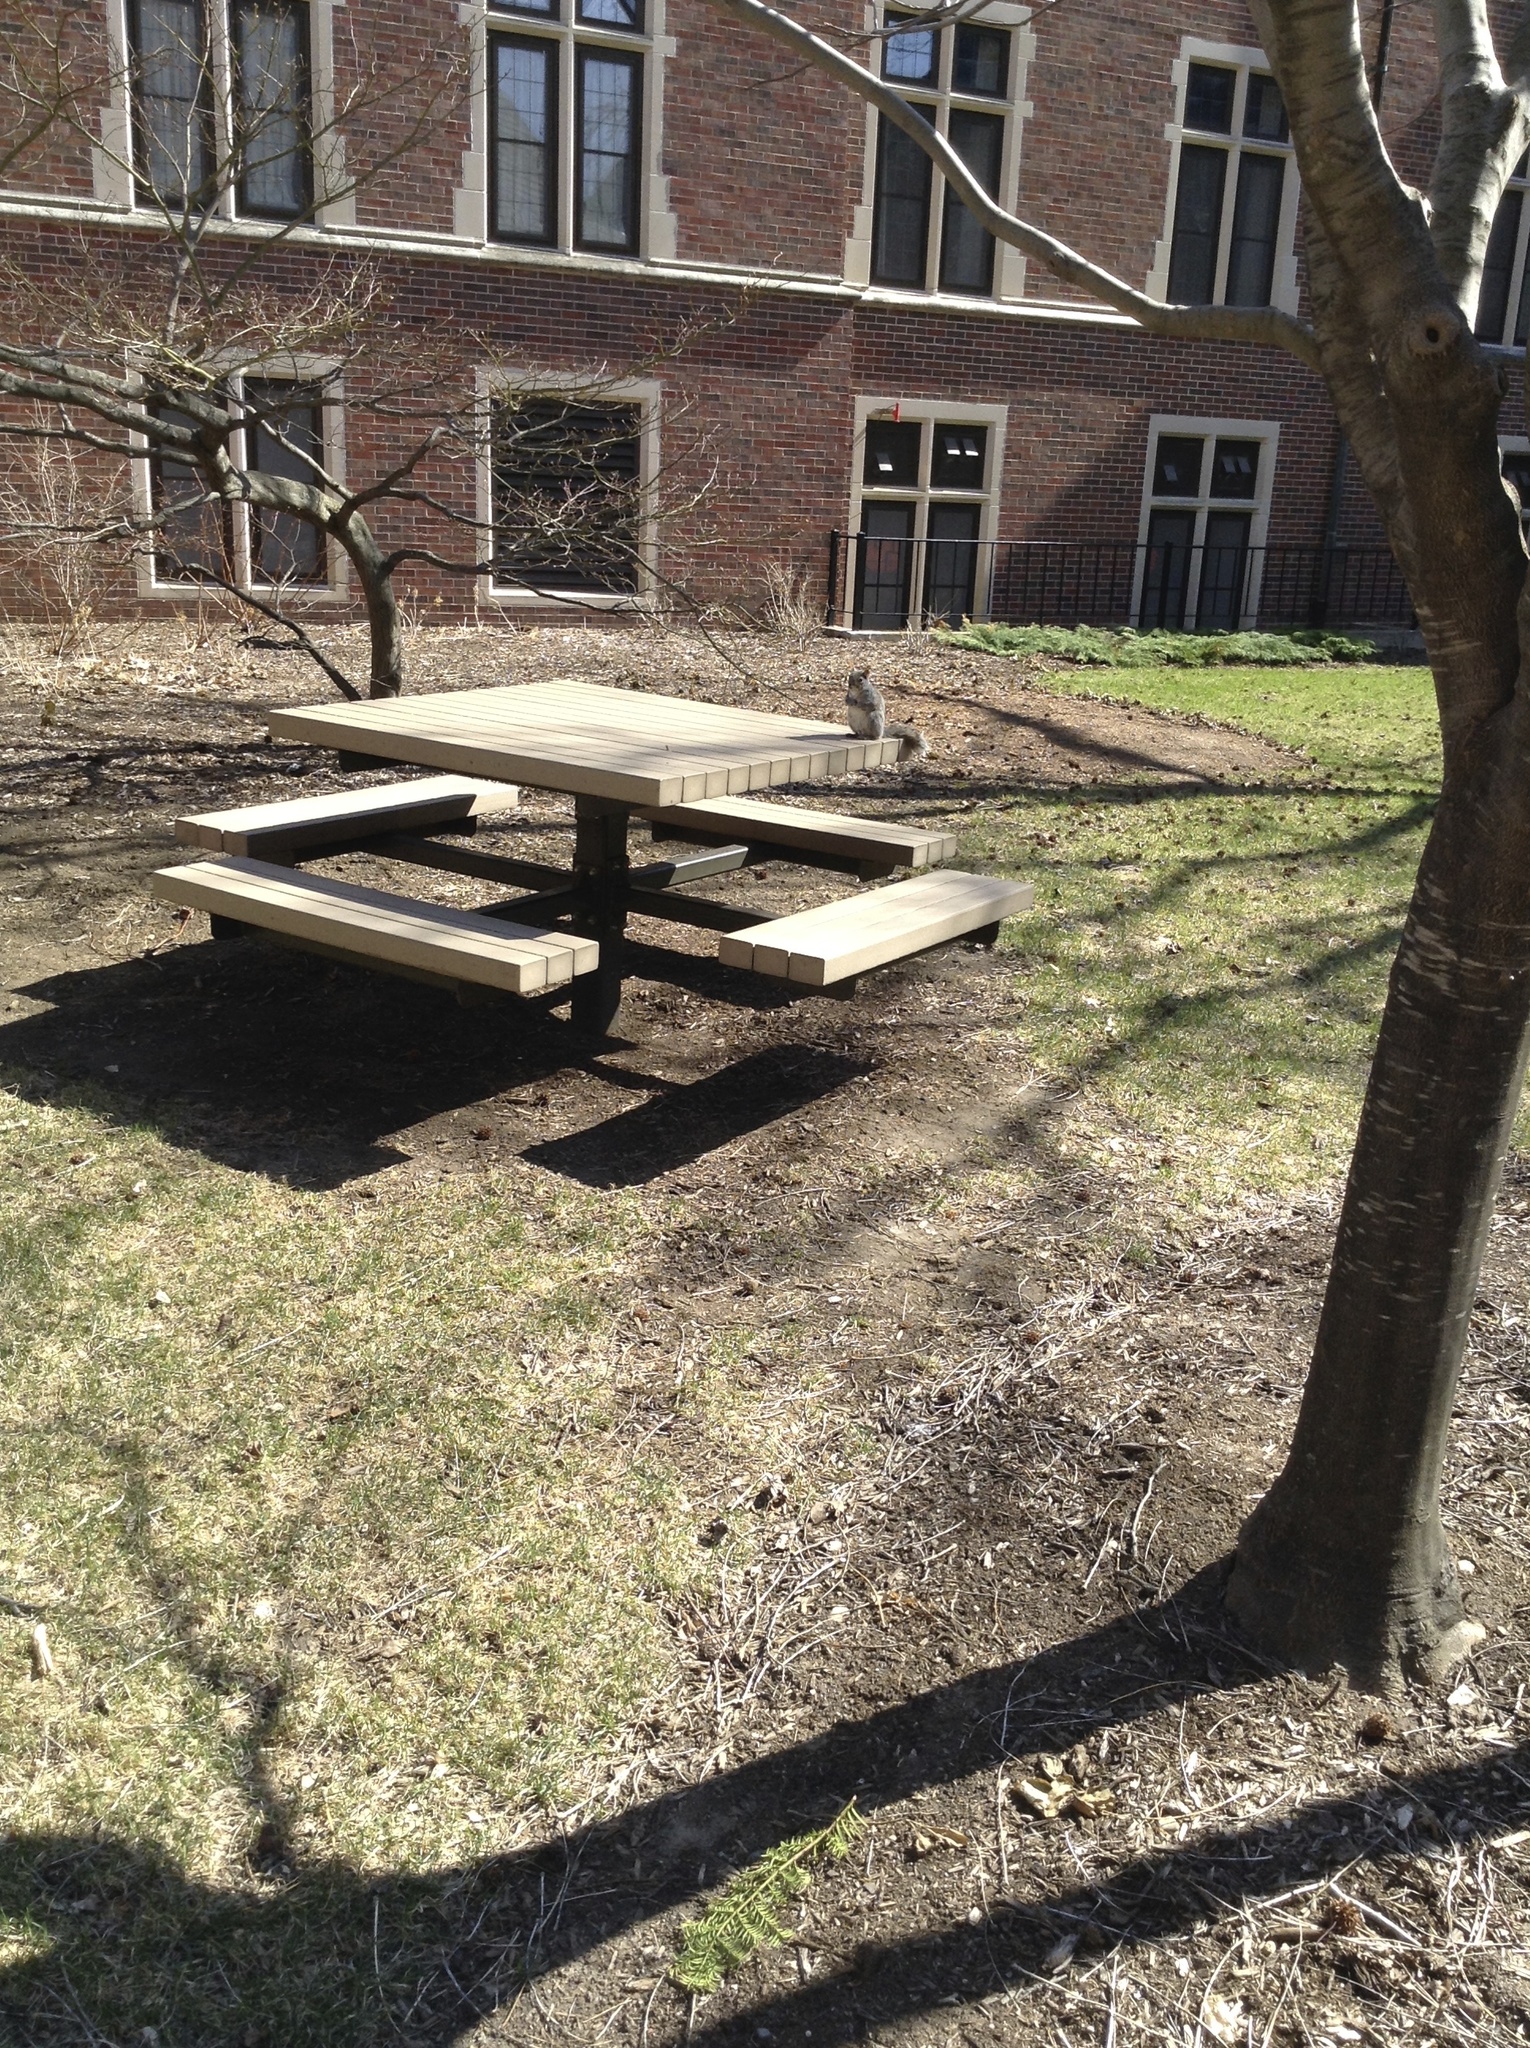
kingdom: Animalia
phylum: Chordata
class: Mammalia
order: Rodentia
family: Sciuridae
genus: Sciurus
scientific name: Sciurus carolinensis
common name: Eastern gray squirrel
